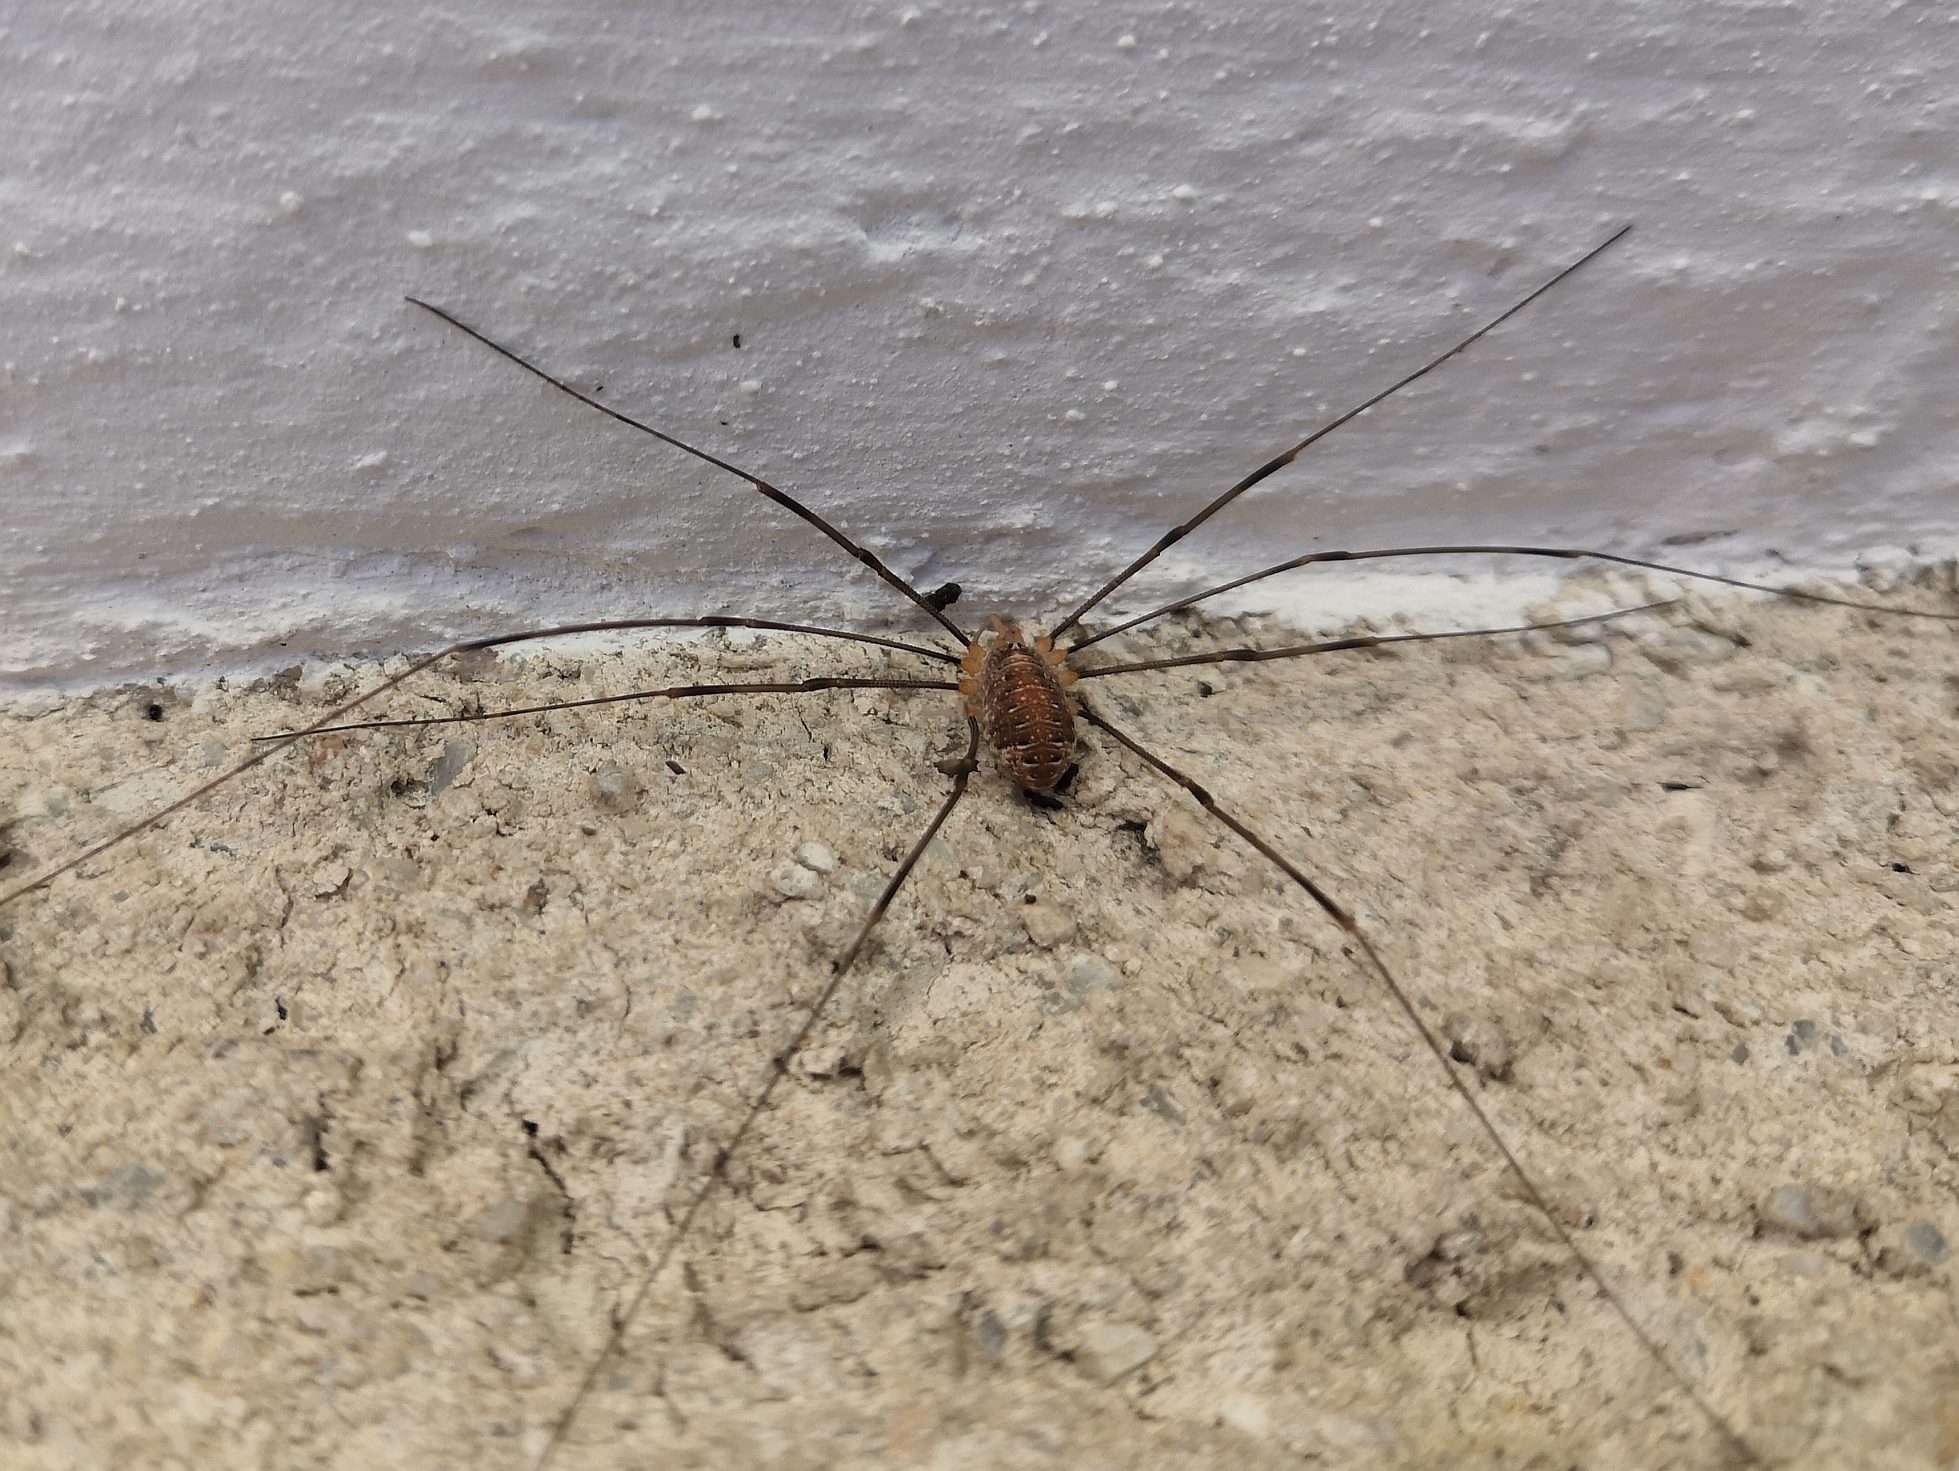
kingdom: Animalia
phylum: Arthropoda
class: Arachnida
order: Opiliones
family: Phalangiidae
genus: Opilio
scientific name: Opilio canestrinii
